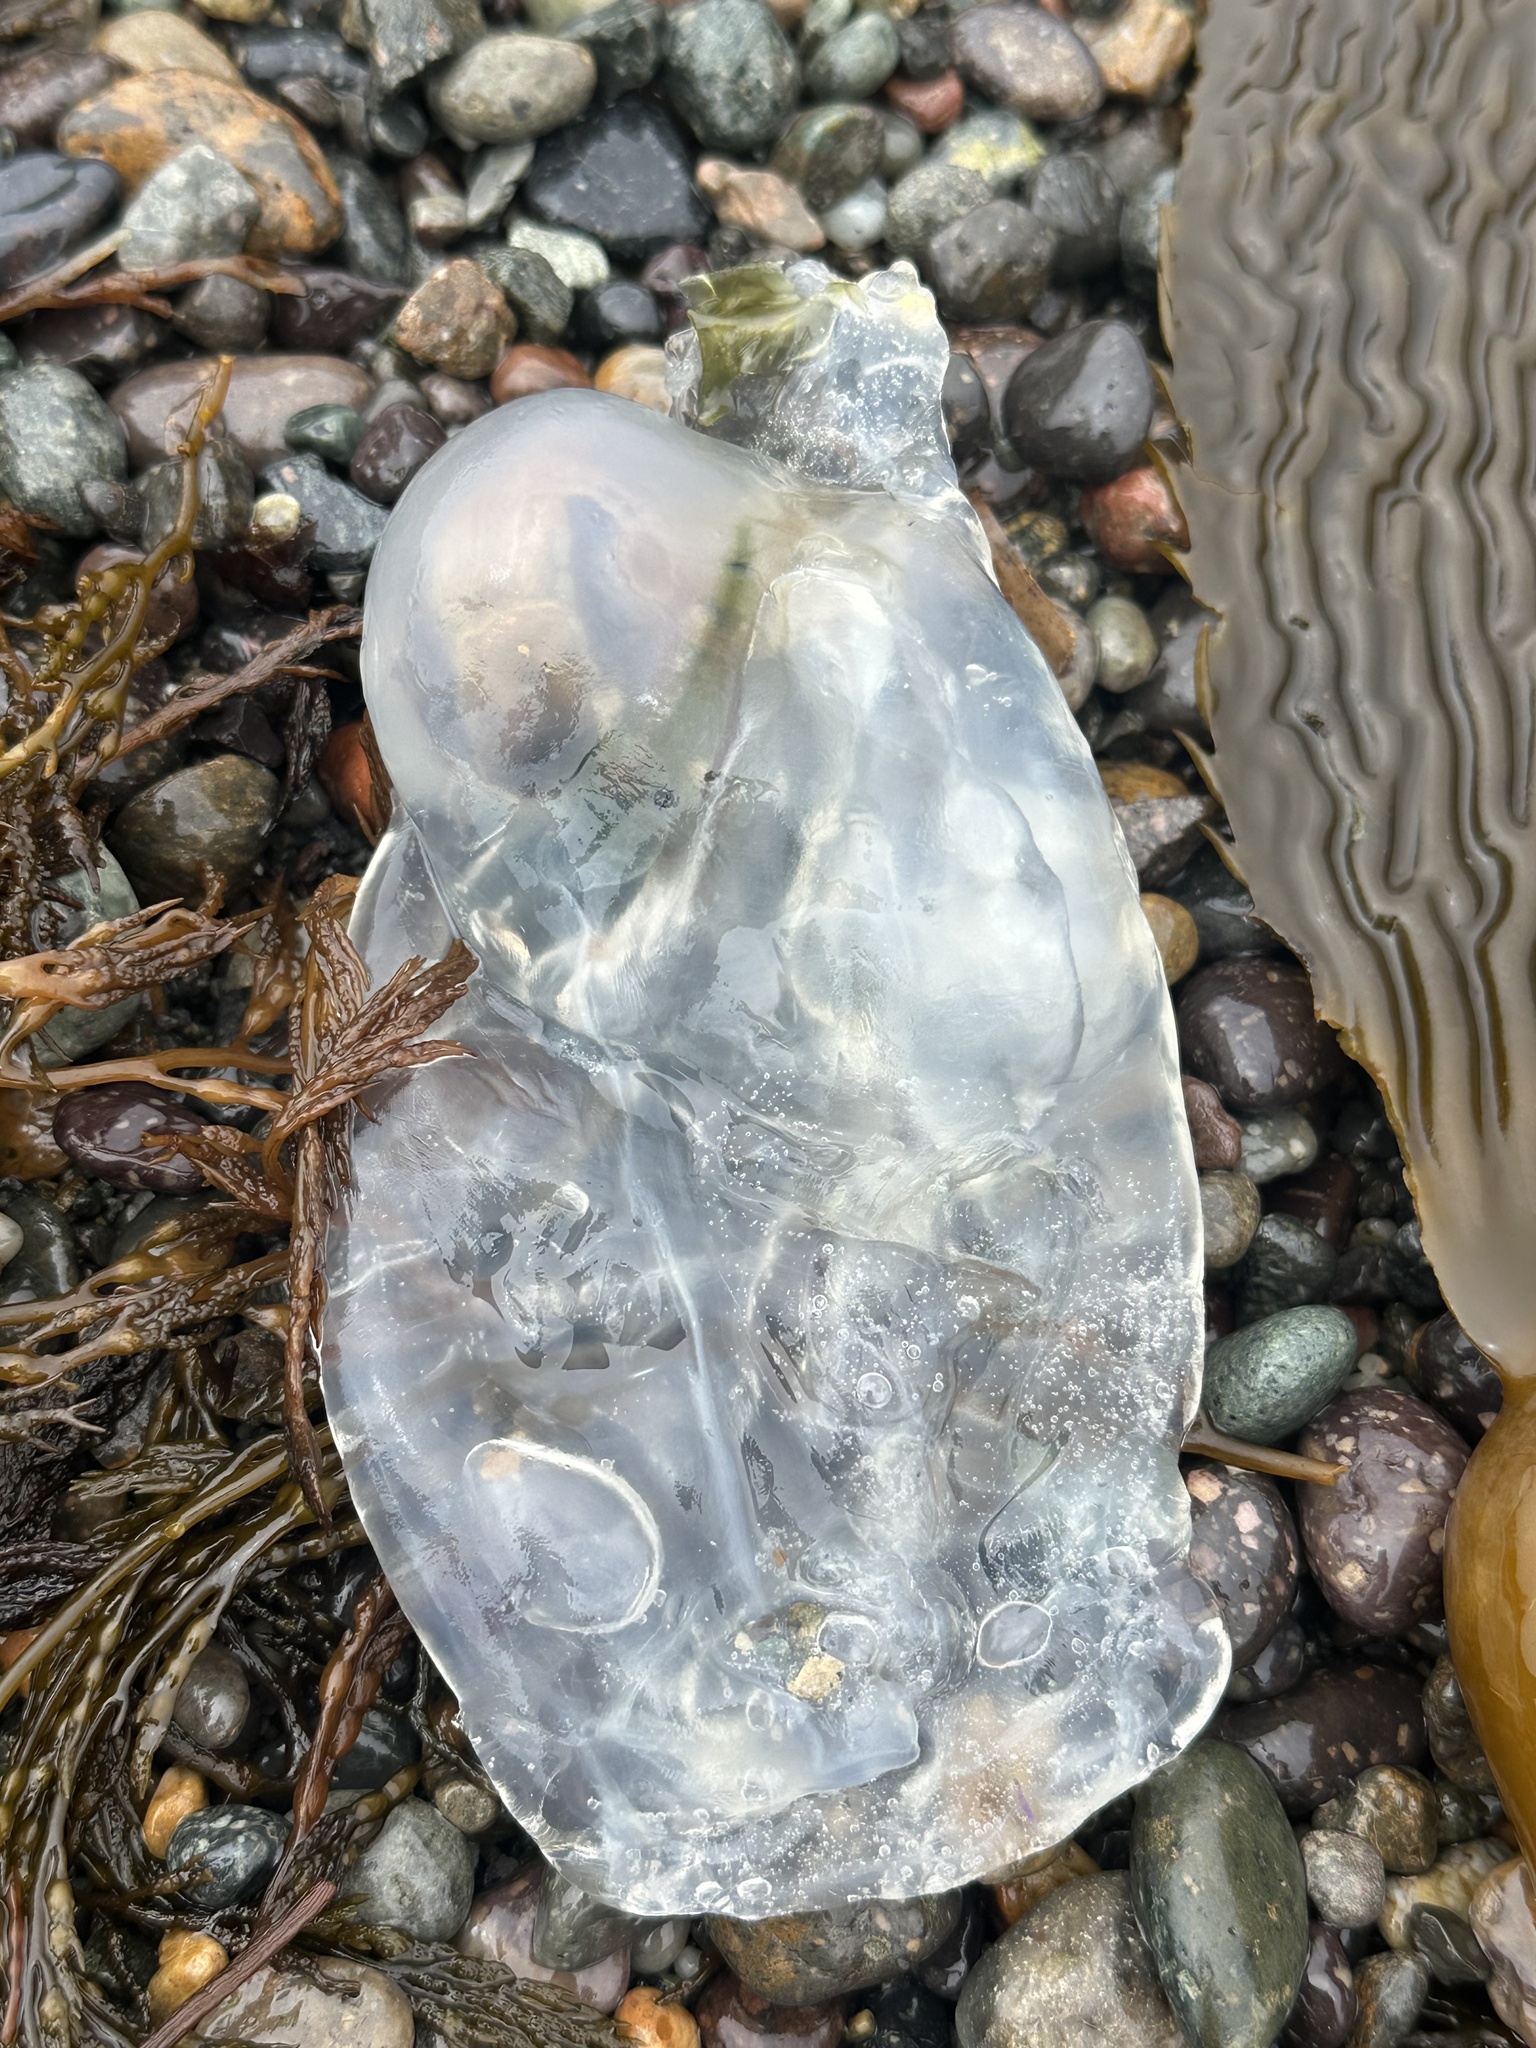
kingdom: Animalia
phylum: Chordata
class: Thaliacea
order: Salpida
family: Salpidae
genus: Thetys
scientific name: Thetys vagina
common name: Vagina salp
